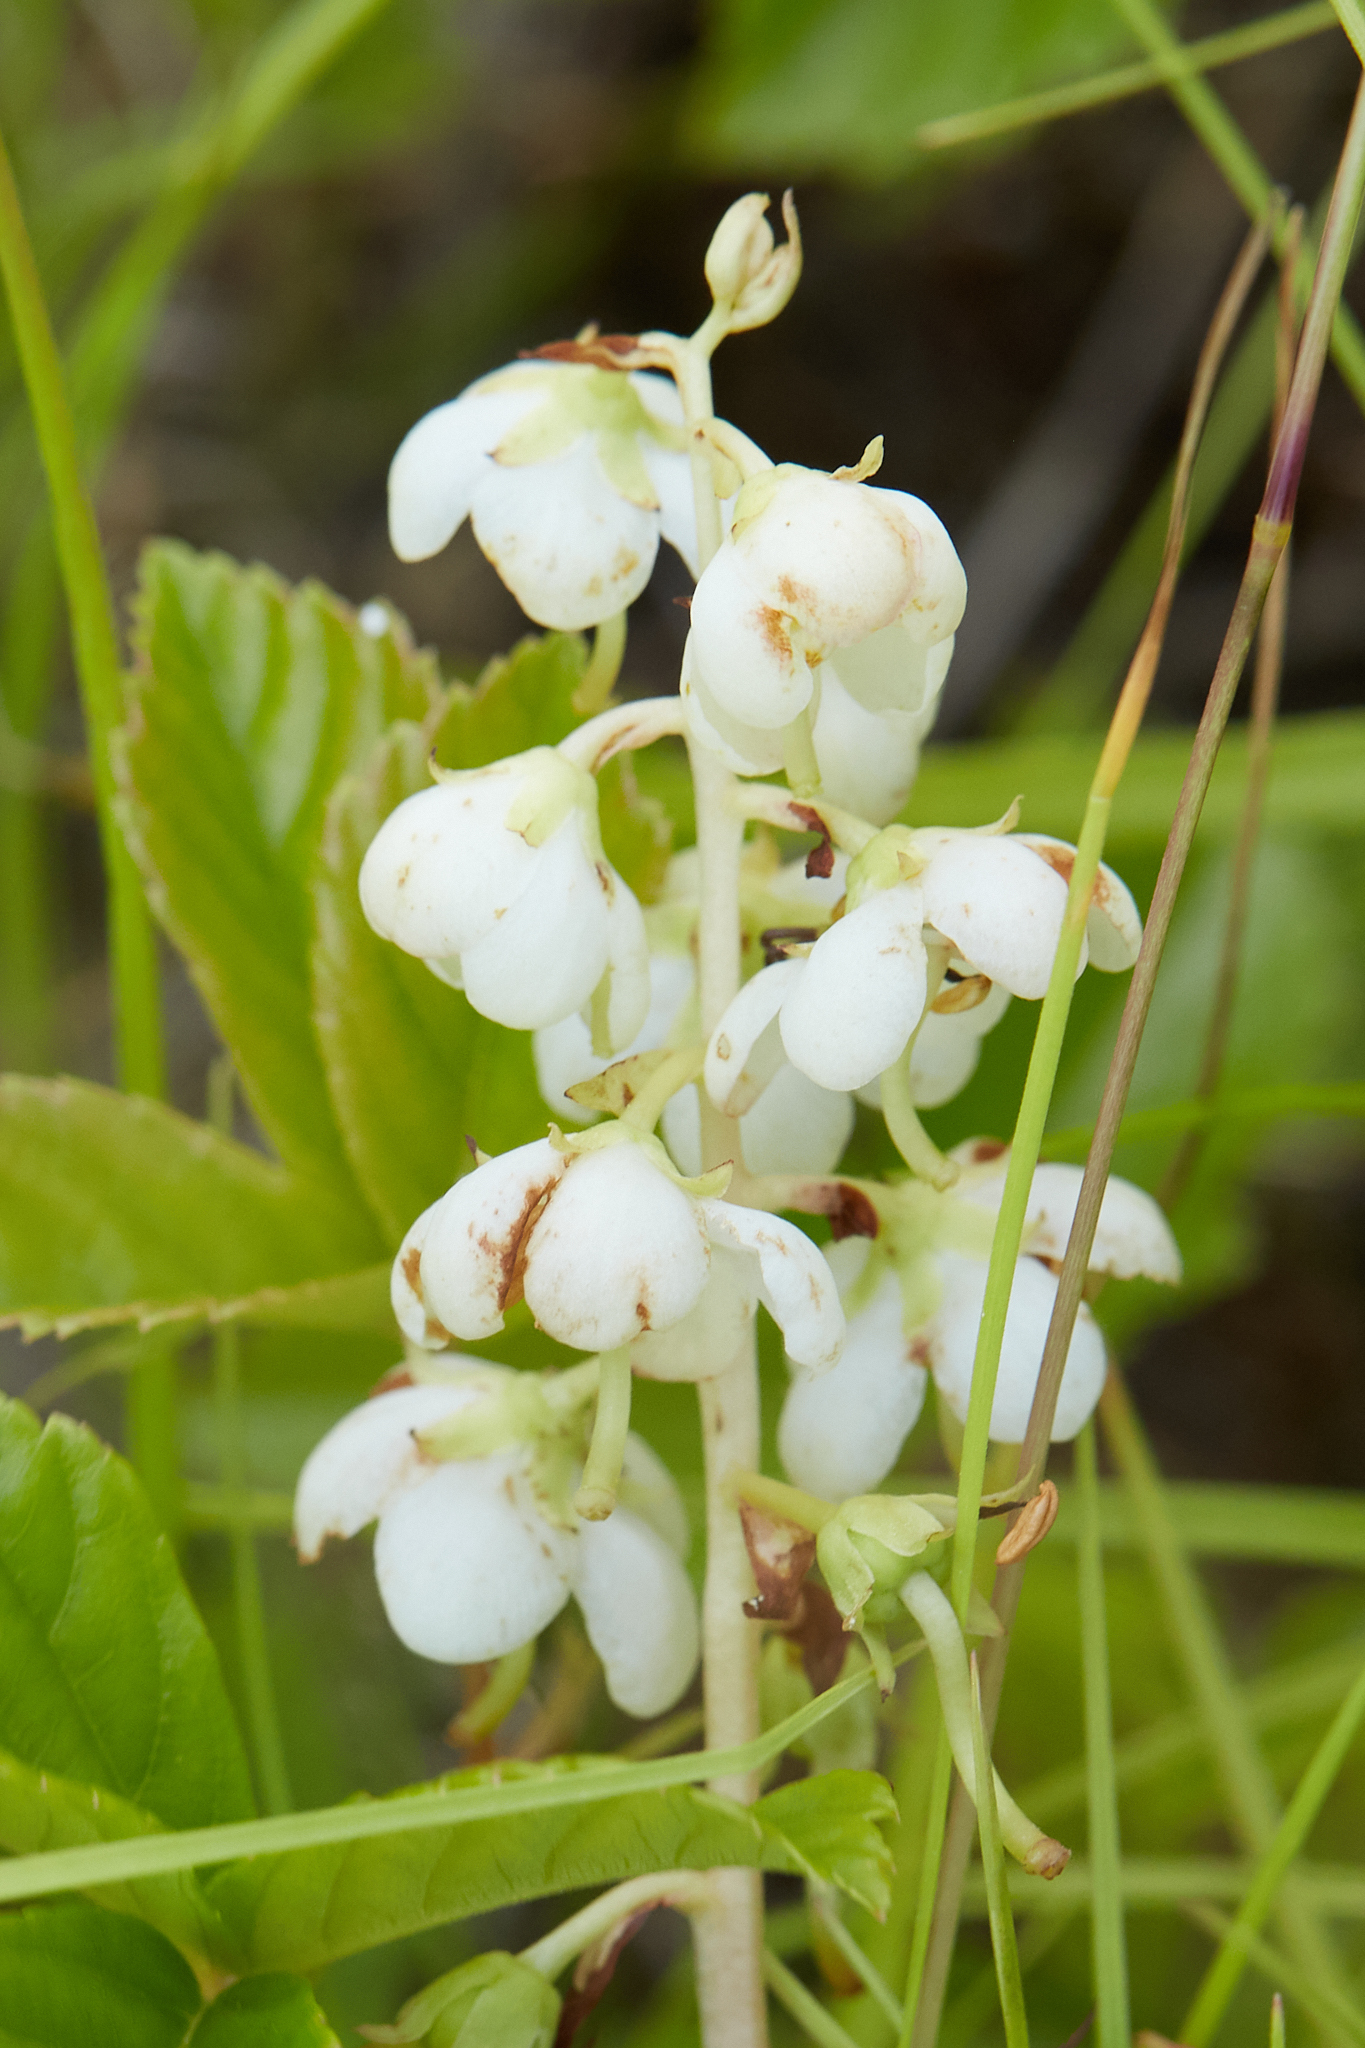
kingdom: Plantae
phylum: Tracheophyta
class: Magnoliopsida
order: Ericales
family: Ericaceae
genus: Pyrola
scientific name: Pyrola americana
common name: American wintergreen
